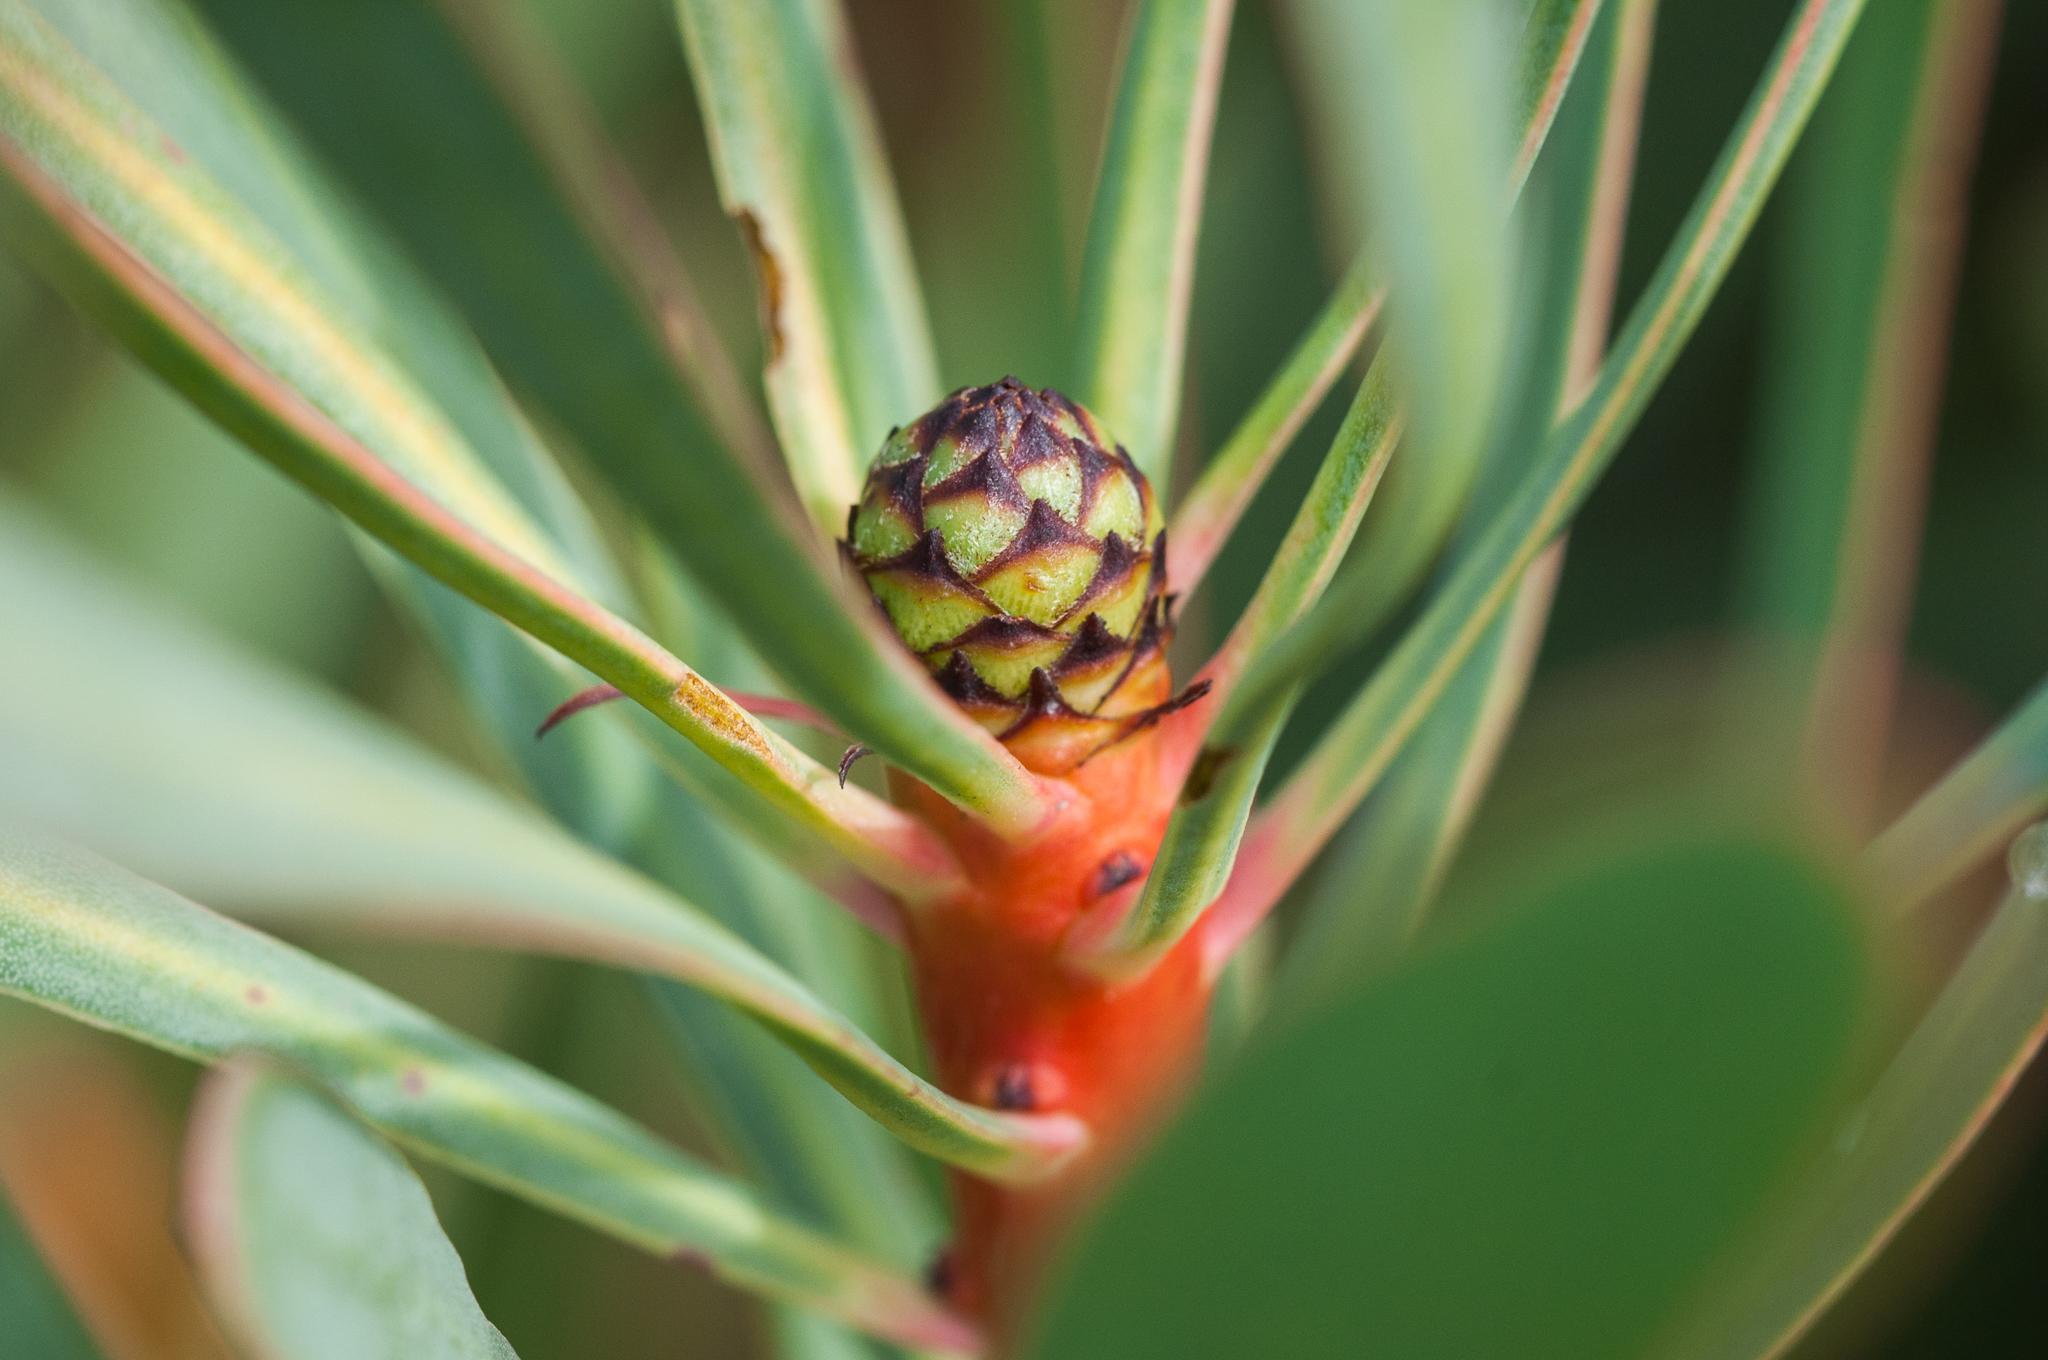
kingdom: Plantae
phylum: Tracheophyta
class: Magnoliopsida
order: Proteales
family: Proteaceae
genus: Protea
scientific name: Protea repens
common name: Sugarbush
